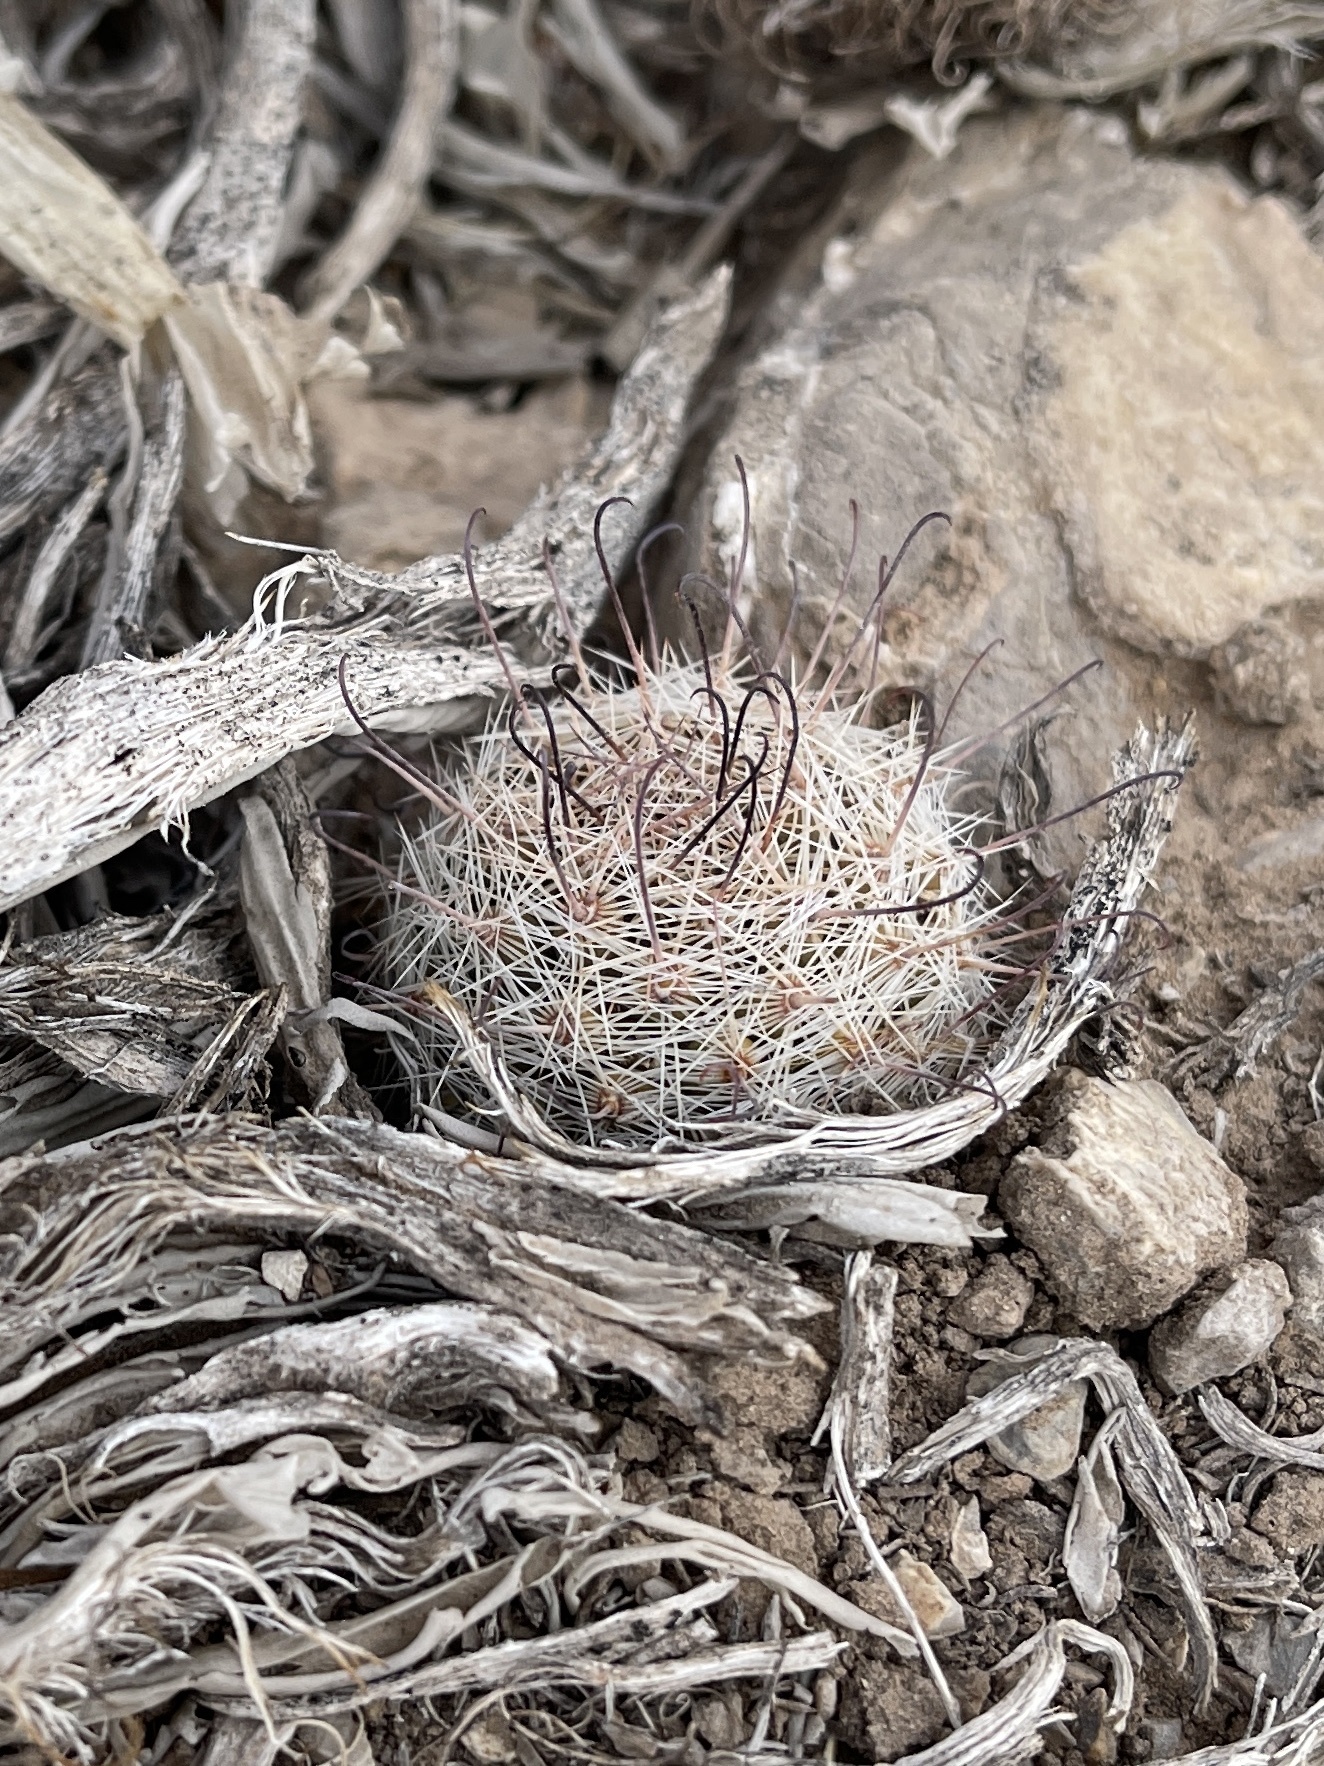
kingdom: Plantae
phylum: Tracheophyta
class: Magnoliopsida
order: Caryophyllales
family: Cactaceae
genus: Cochemiea
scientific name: Cochemiea grahamii
